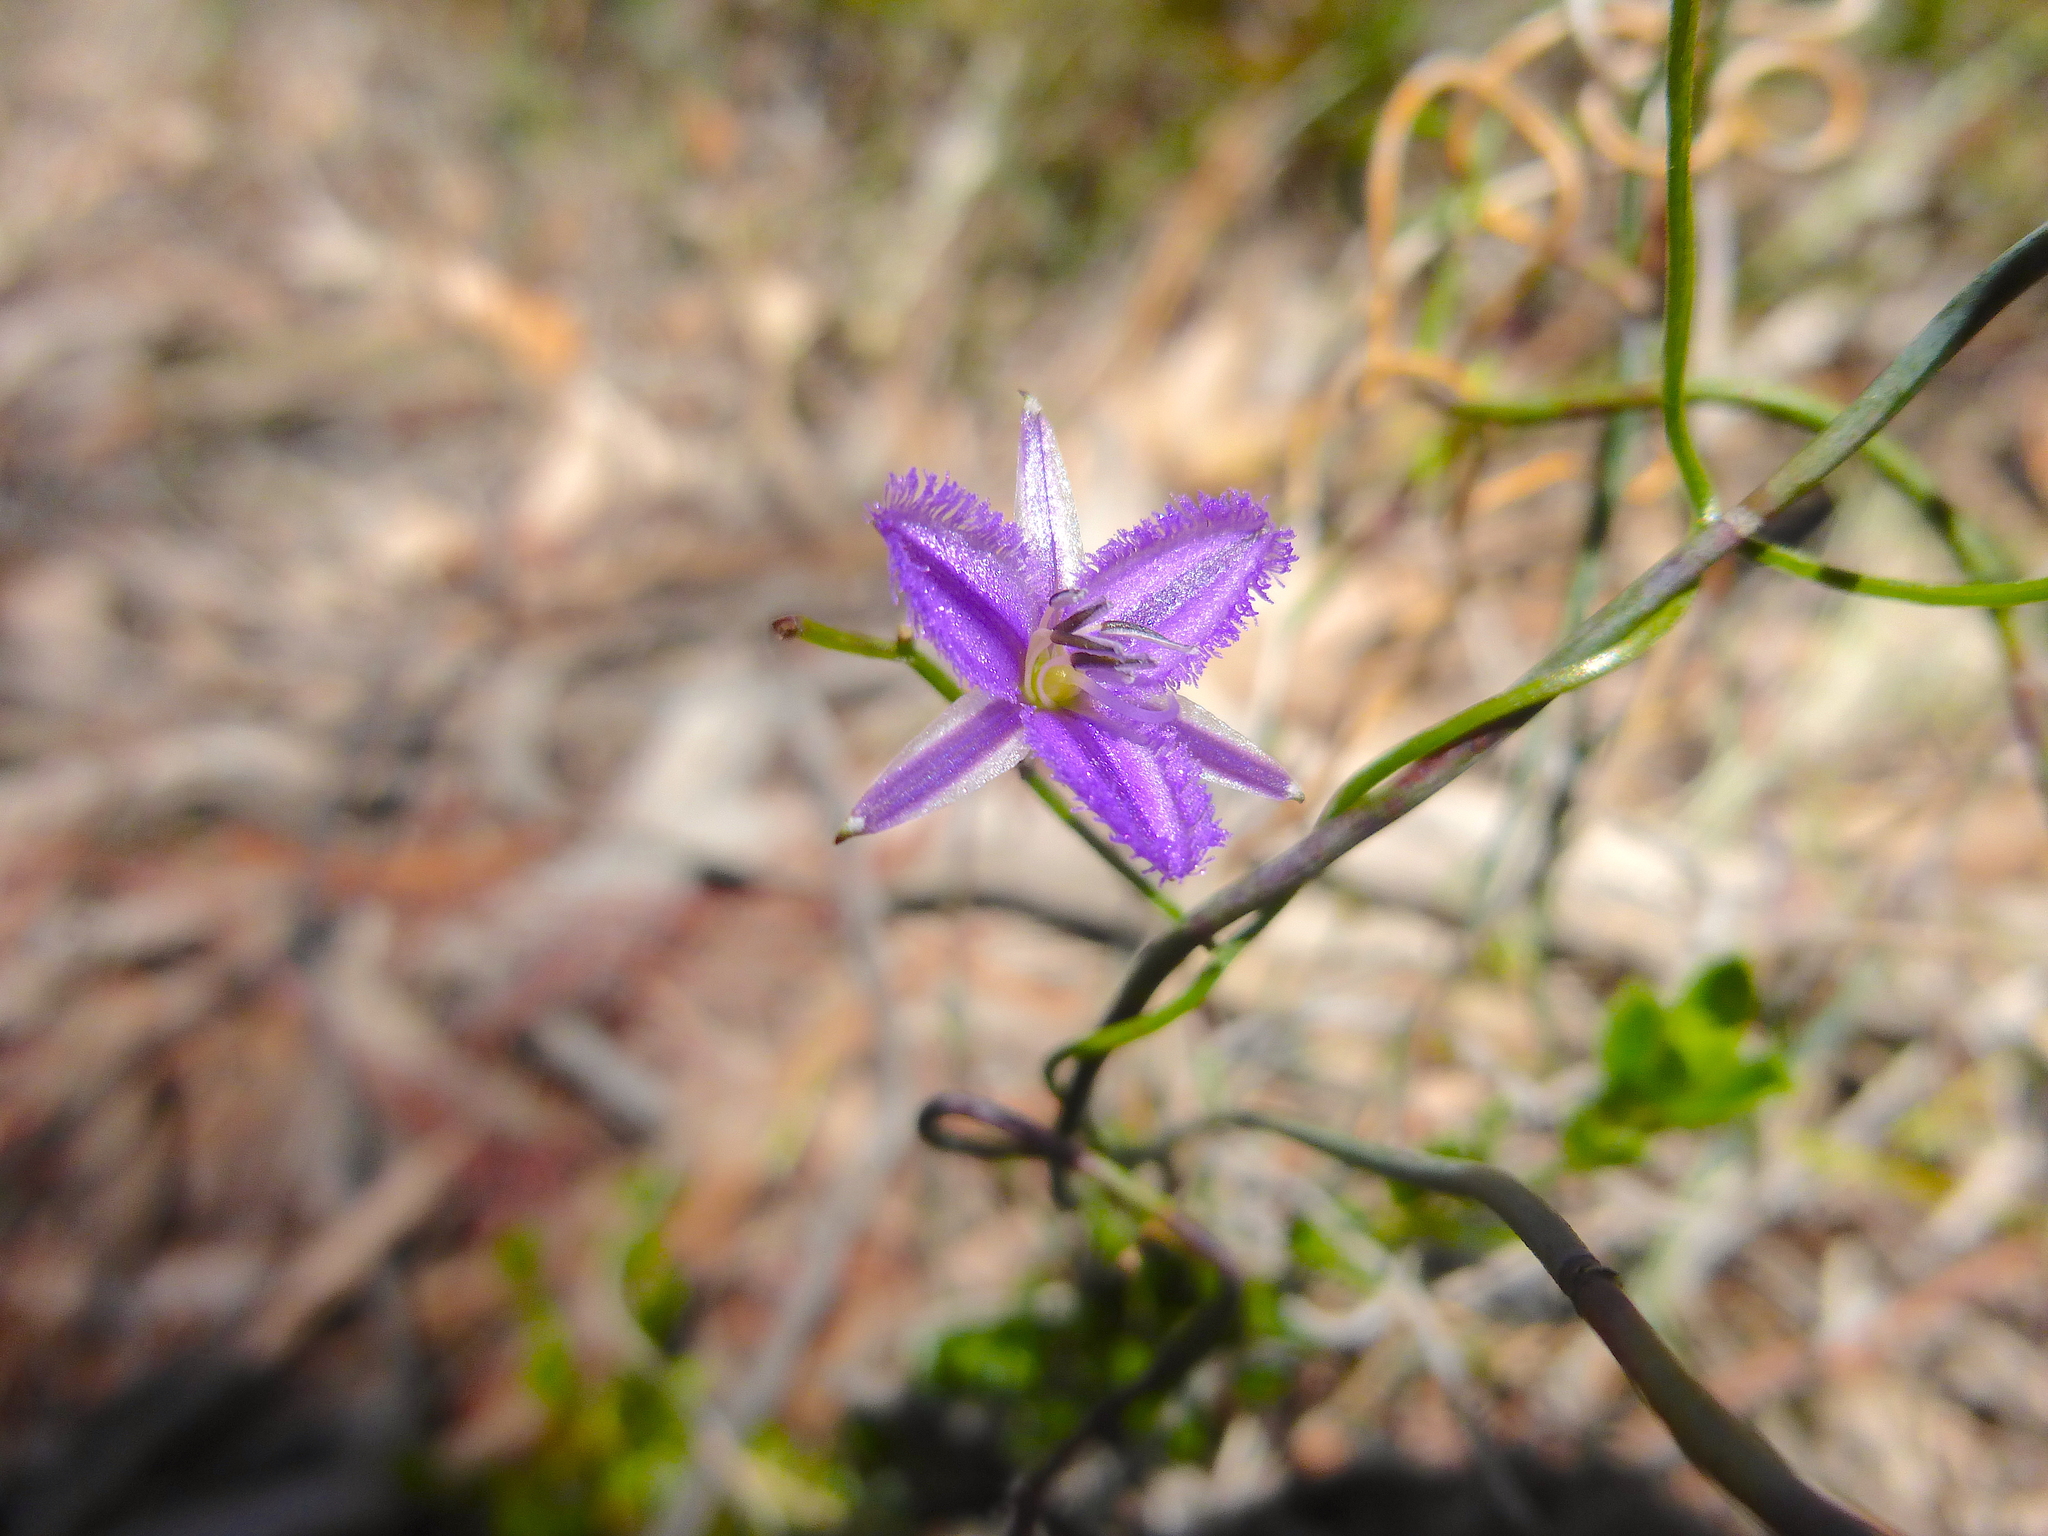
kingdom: Plantae
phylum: Tracheophyta
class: Liliopsida
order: Asparagales
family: Asparagaceae
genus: Thysanotus
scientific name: Thysanotus patersonii
